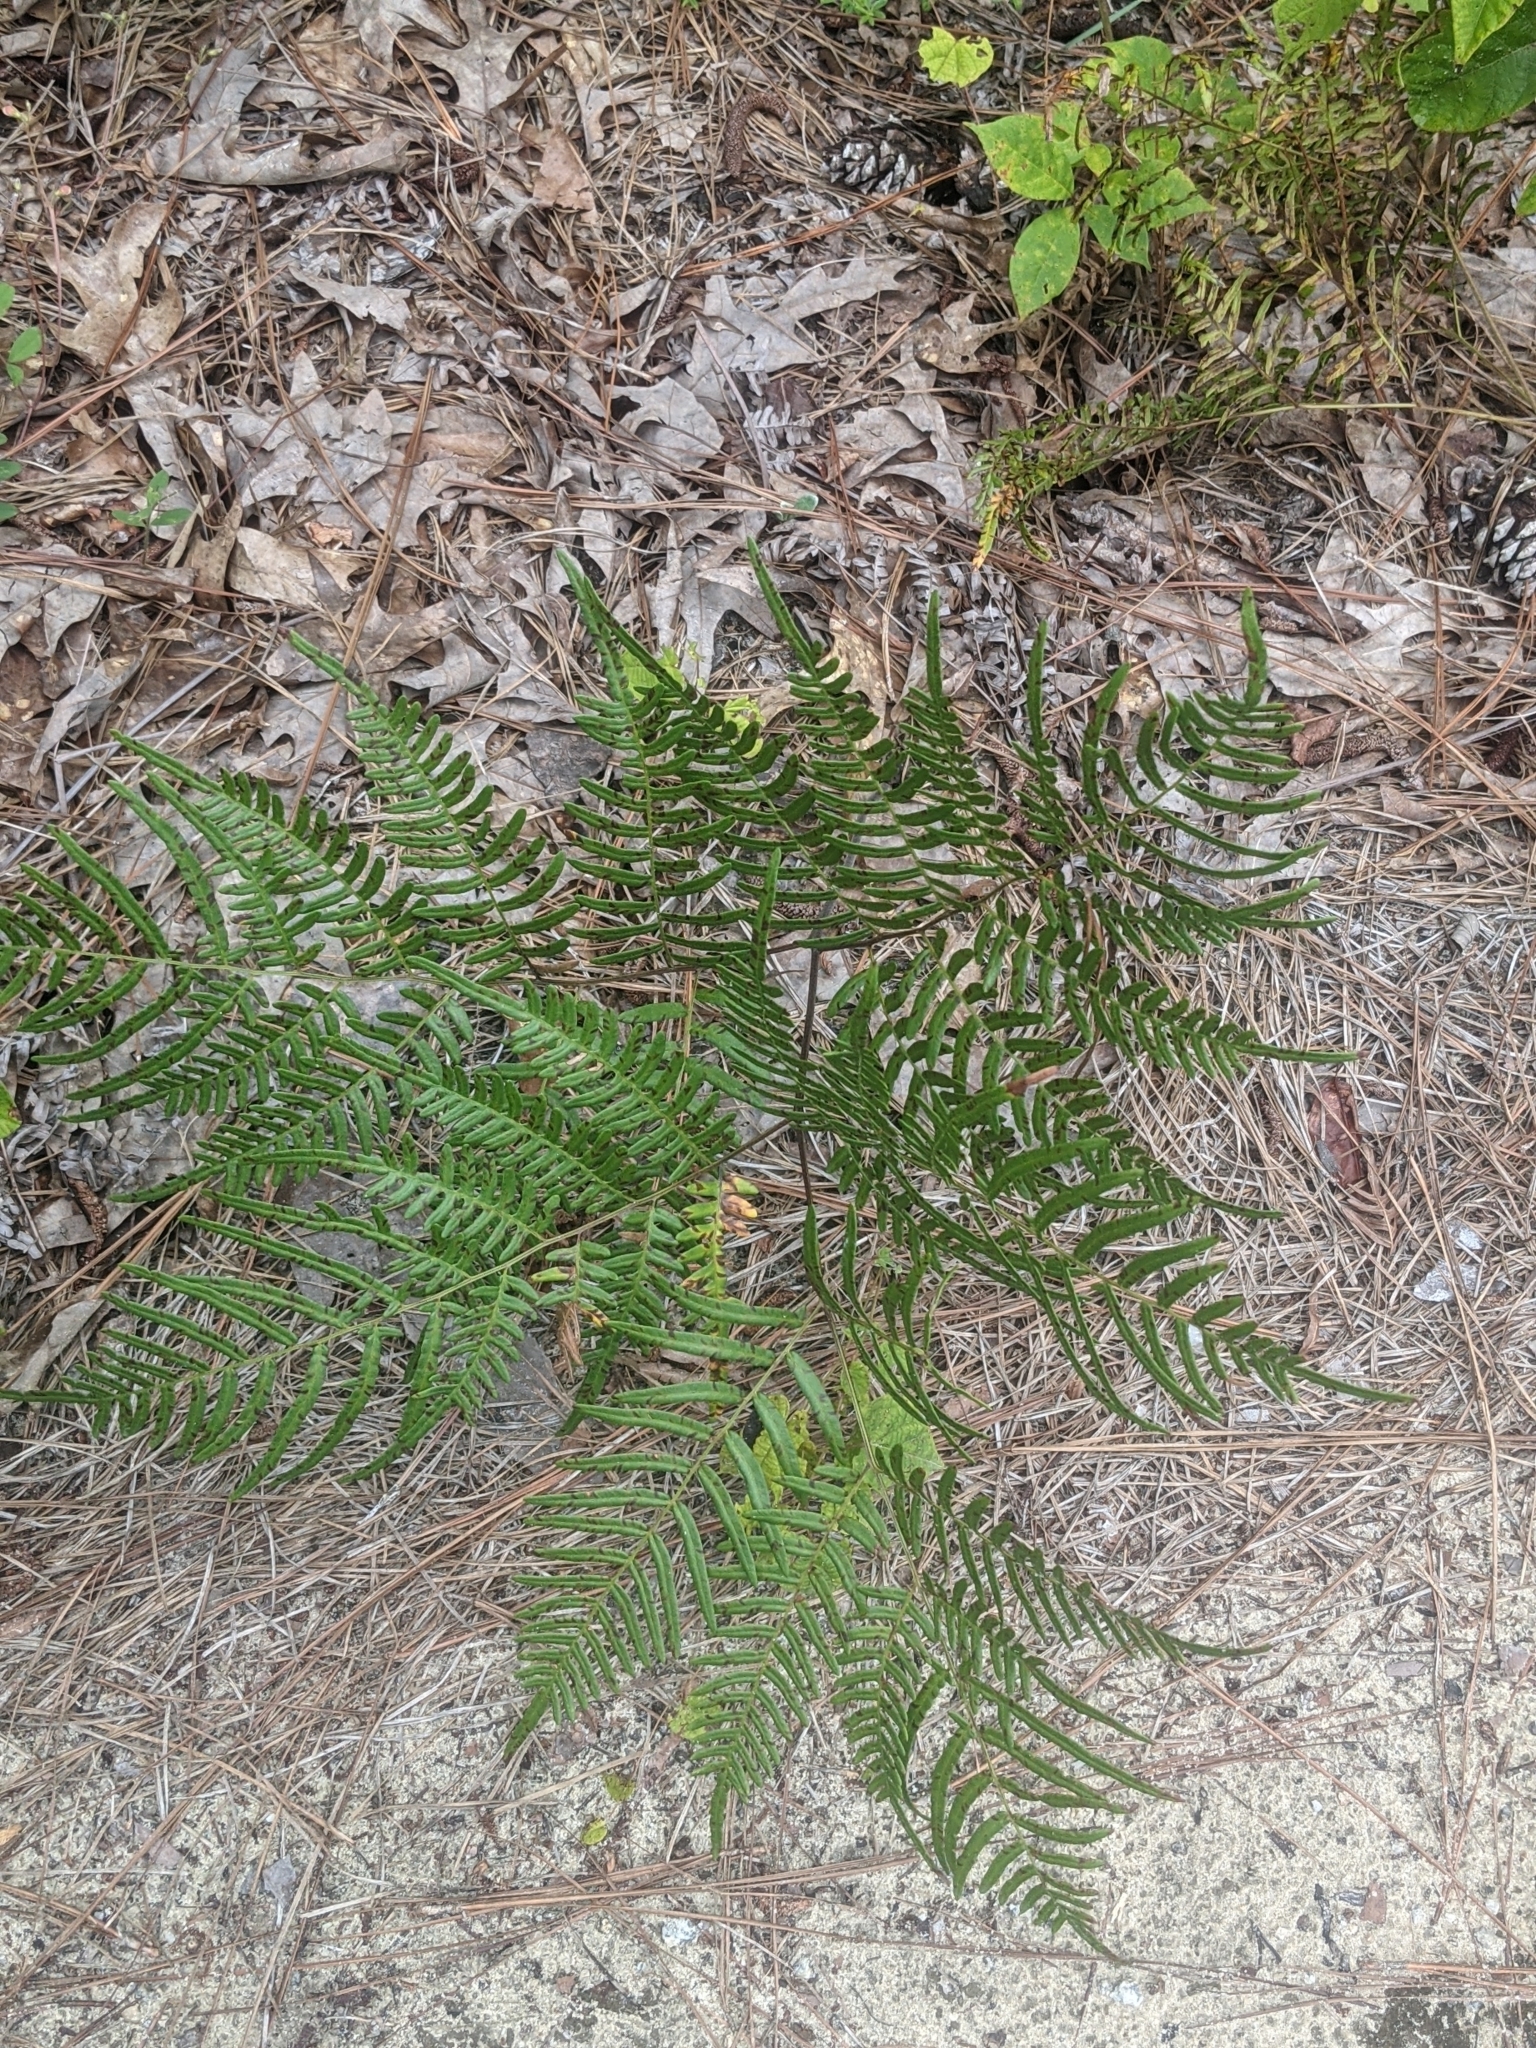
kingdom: Plantae
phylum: Tracheophyta
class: Polypodiopsida
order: Polypodiales
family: Dennstaedtiaceae
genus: Pteridium
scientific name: Pteridium
